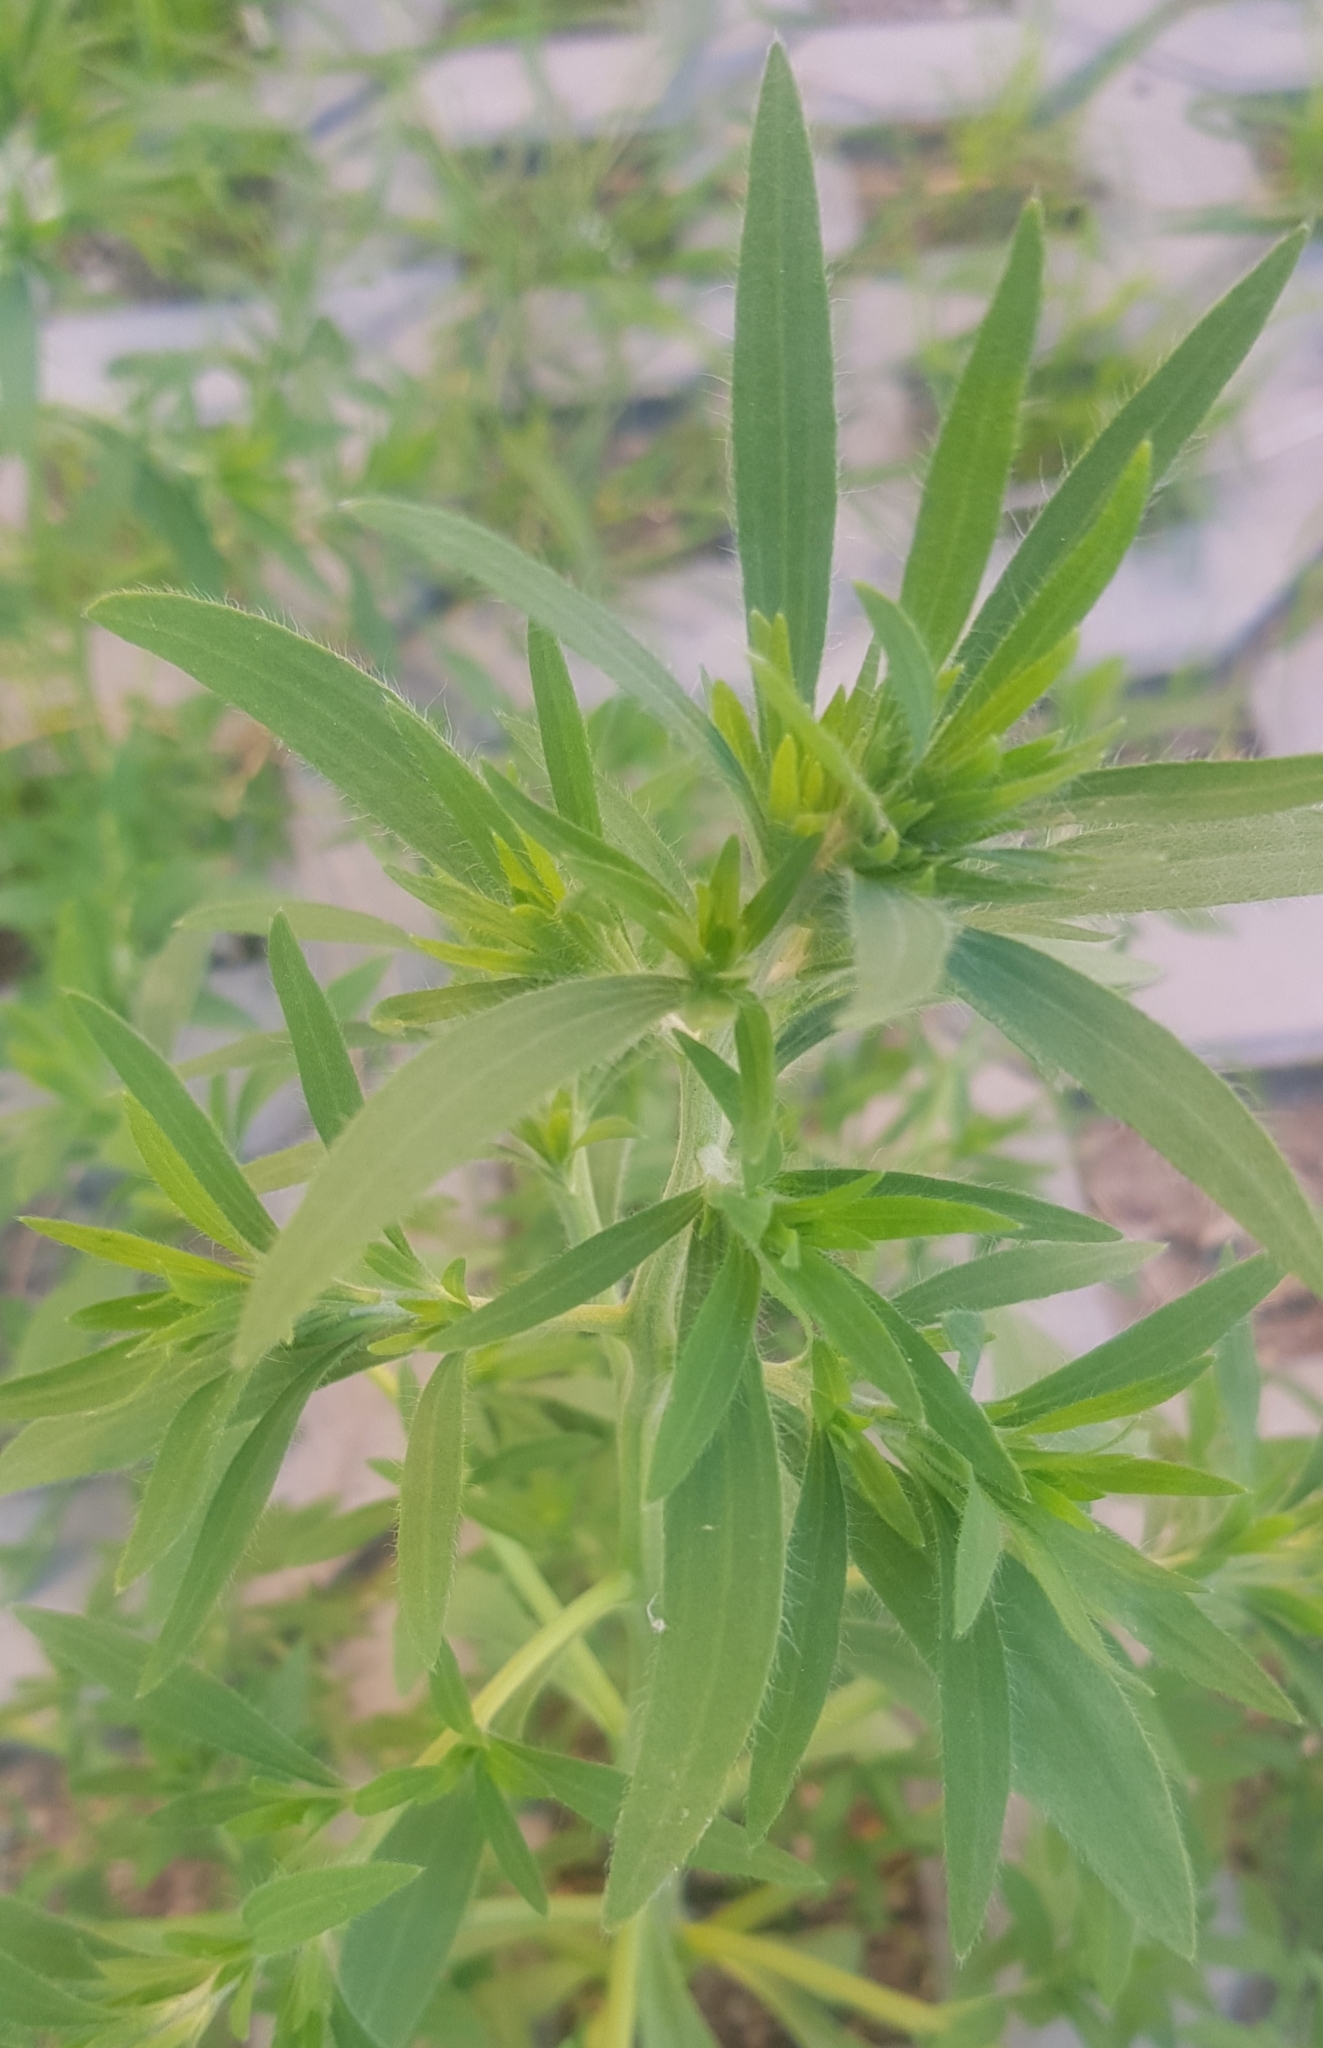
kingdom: Plantae
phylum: Tracheophyta
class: Magnoliopsida
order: Caryophyllales
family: Amaranthaceae
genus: Bassia
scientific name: Bassia scoparia
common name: Belvedere
